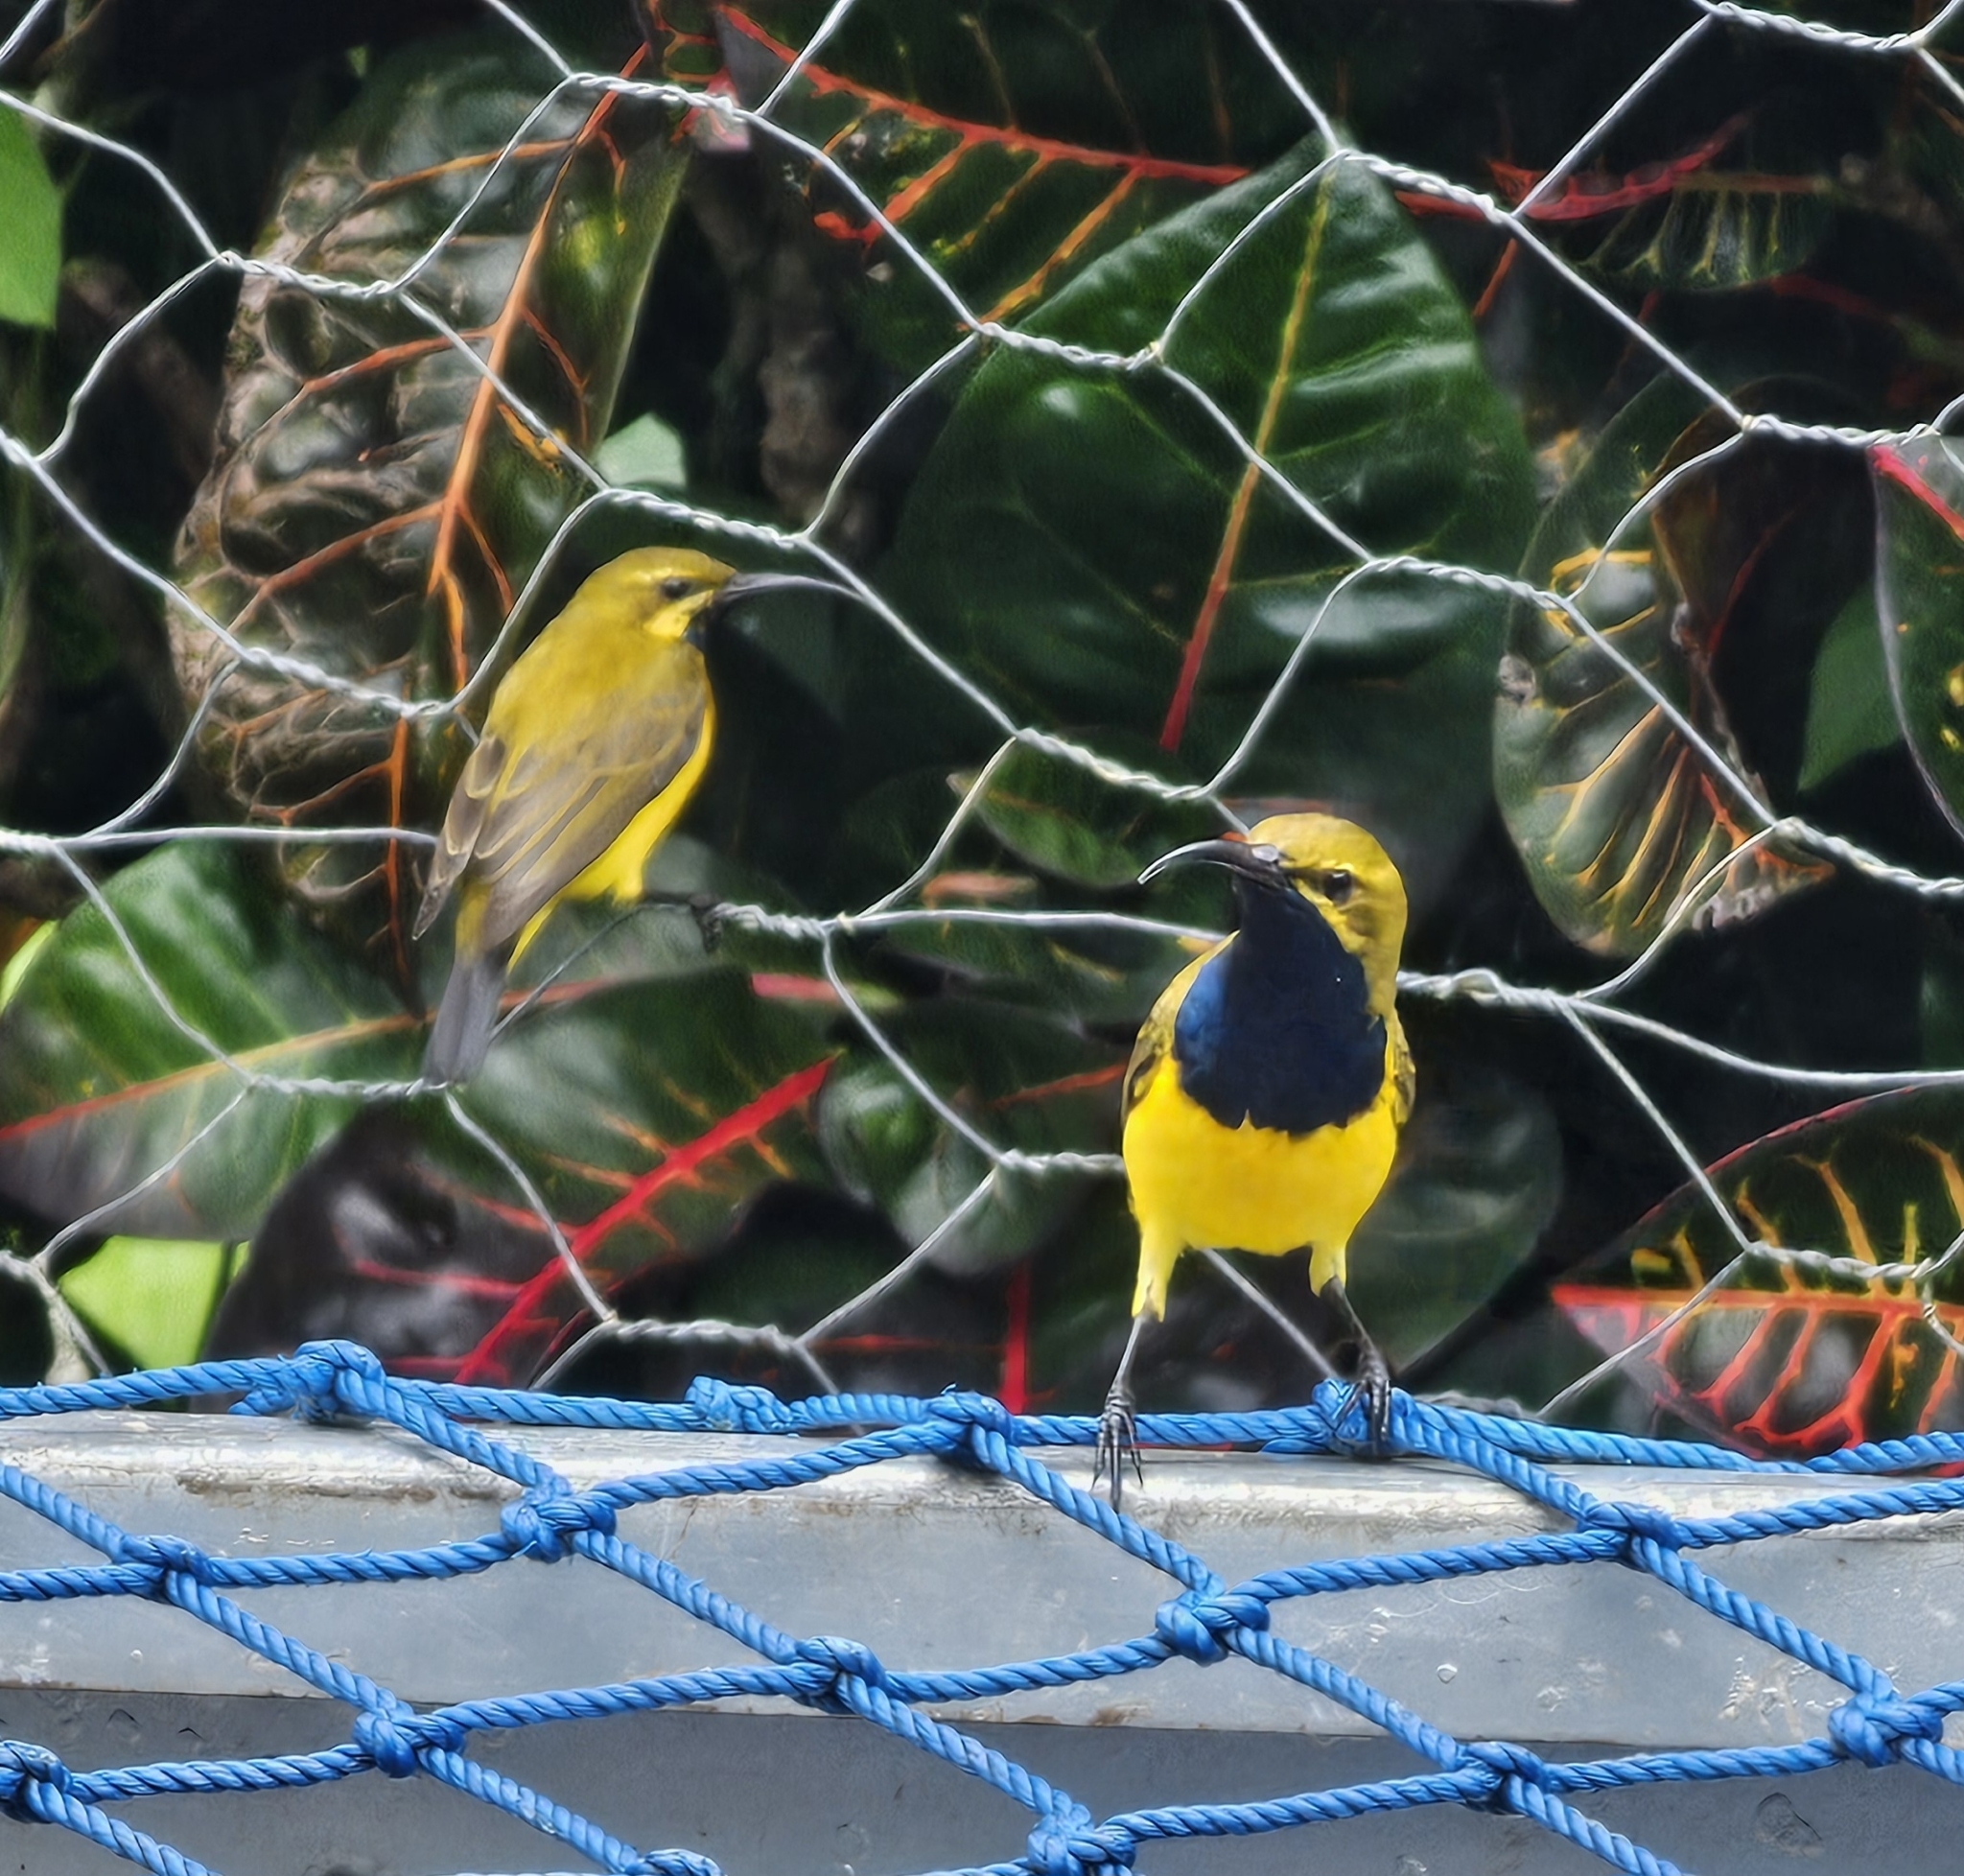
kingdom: Animalia
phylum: Chordata
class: Aves
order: Passeriformes
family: Nectariniidae
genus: Cinnyris
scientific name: Cinnyris
